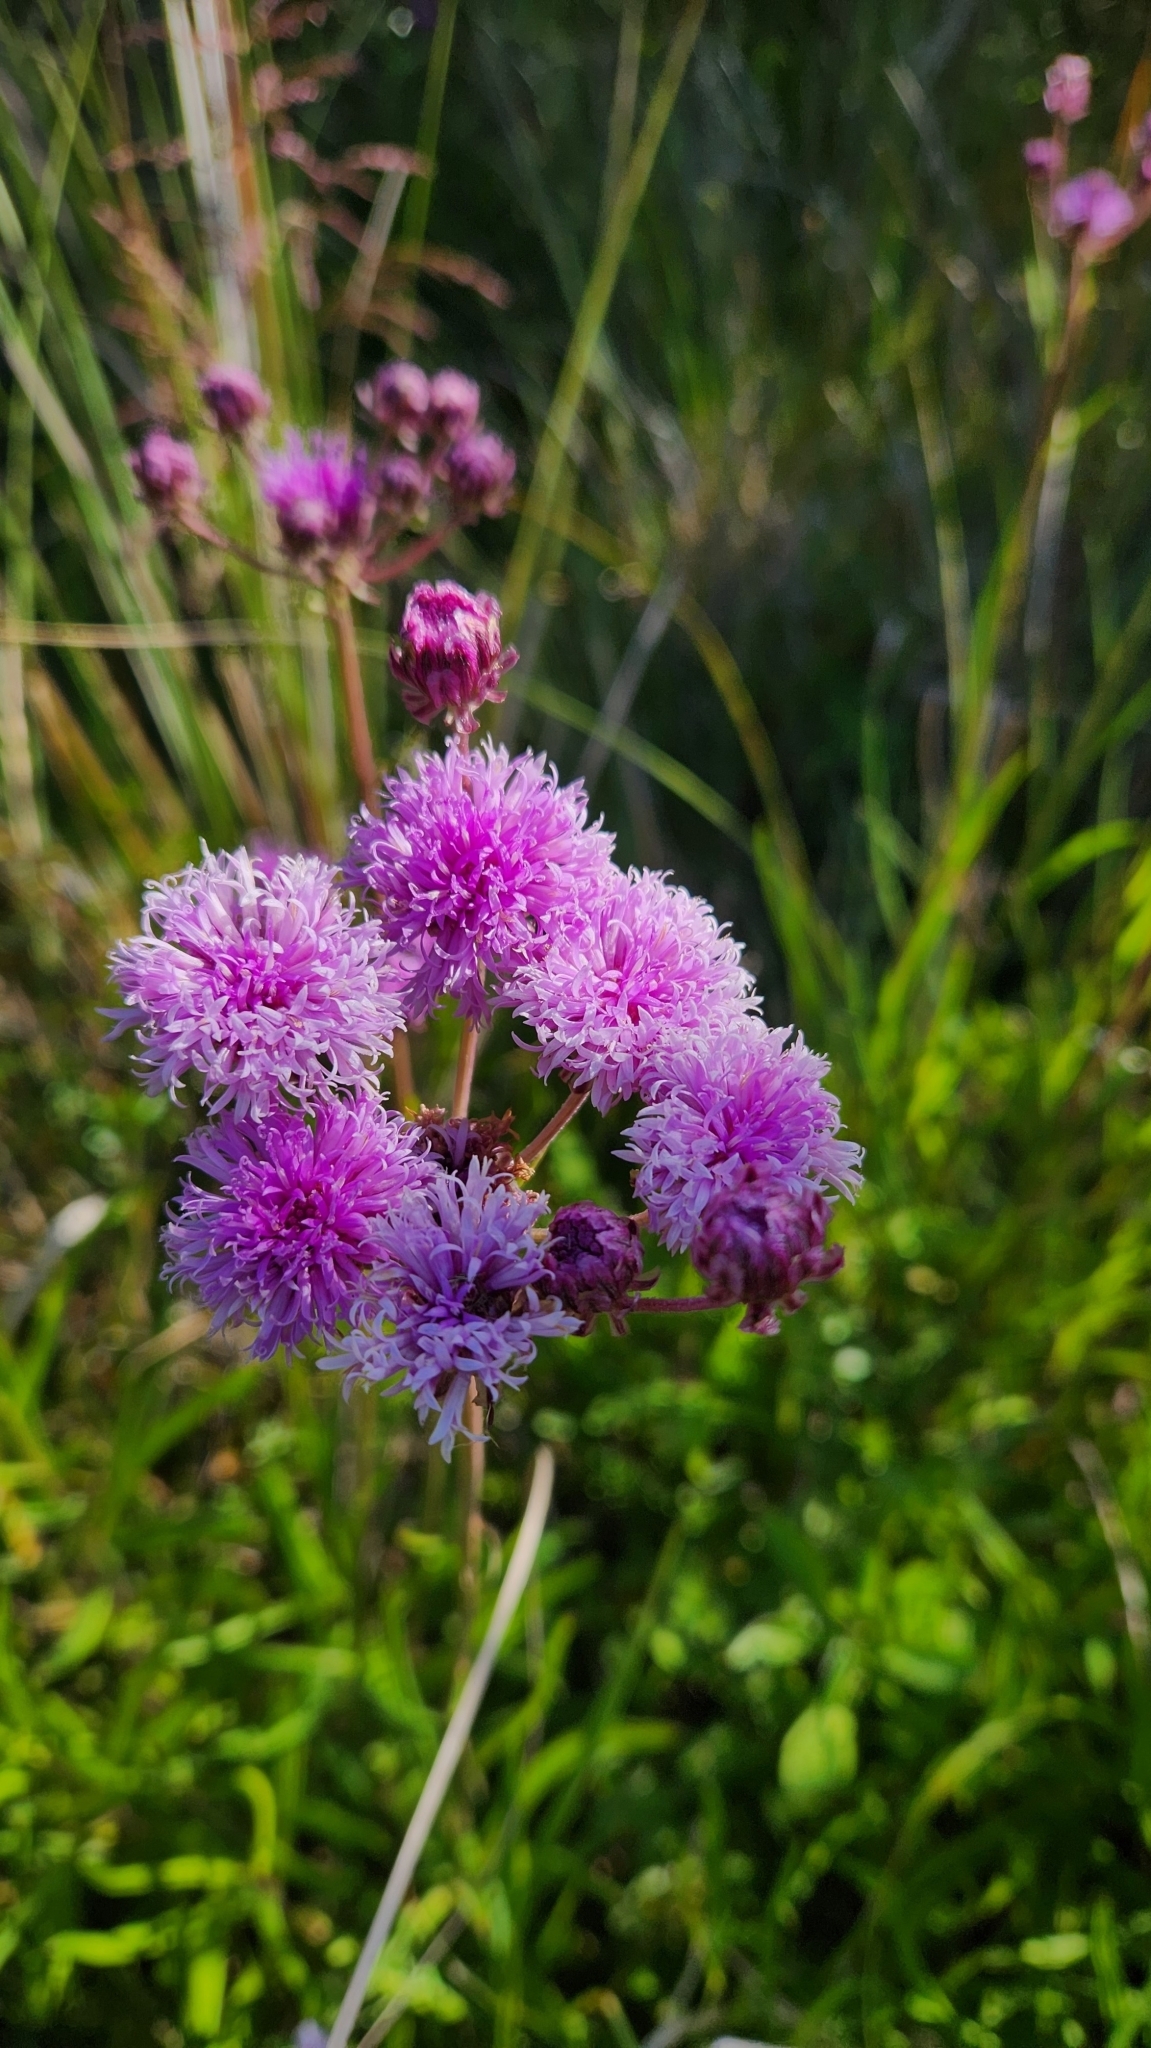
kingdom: Plantae
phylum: Tracheophyta
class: Magnoliopsida
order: Asterales
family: Asteraceae
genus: Vernonia
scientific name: Vernonia echioides
